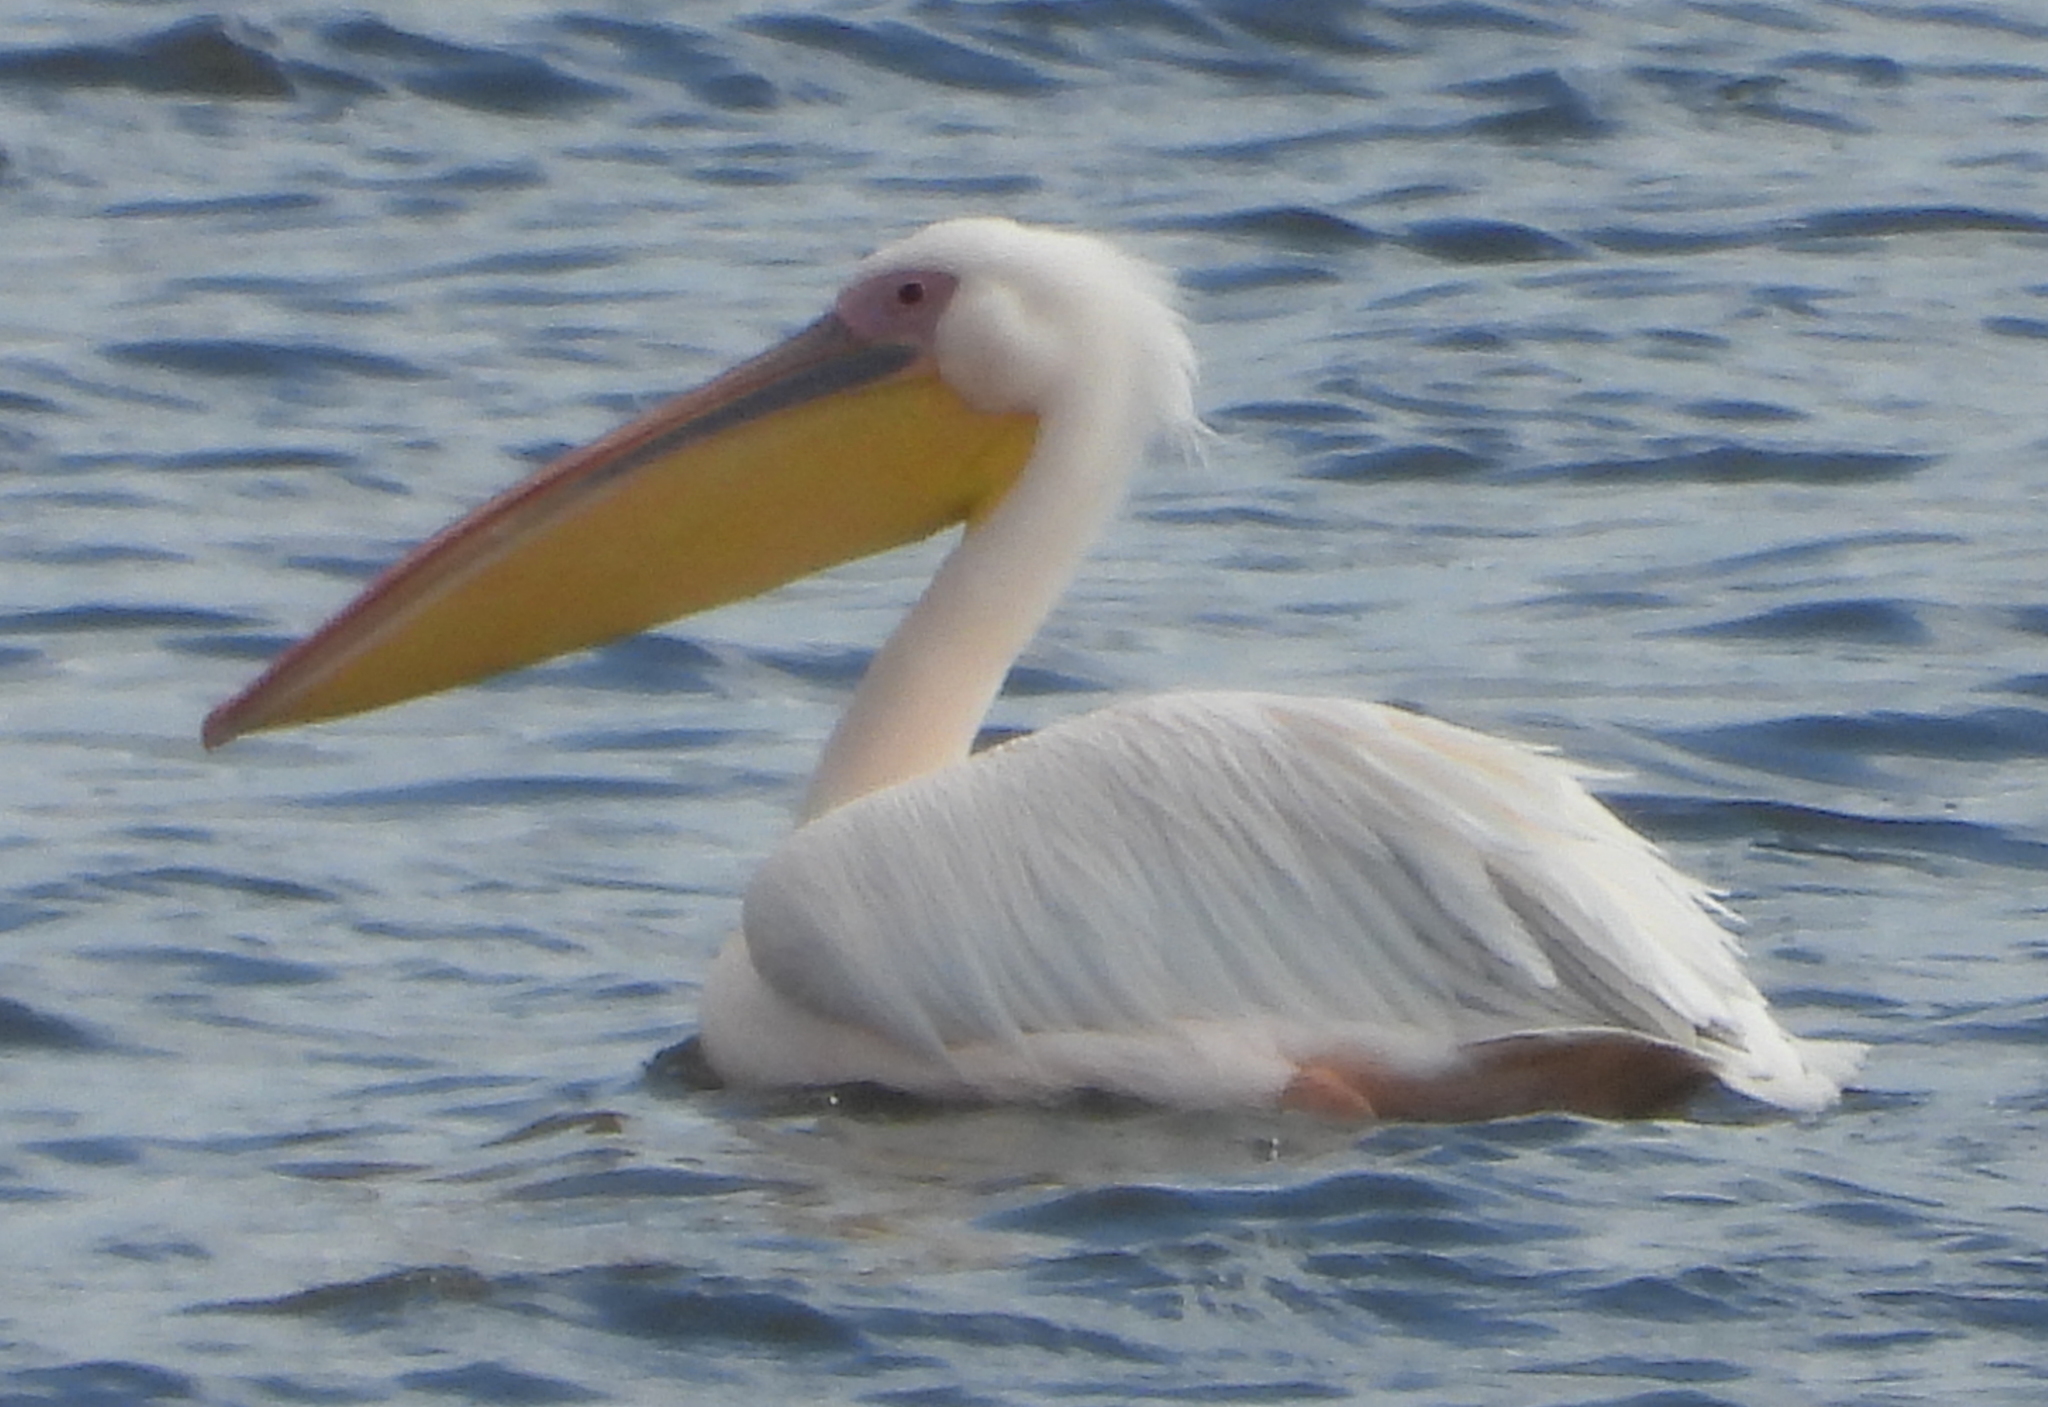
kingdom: Animalia
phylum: Chordata
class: Aves
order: Pelecaniformes
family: Pelecanidae
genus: Pelecanus
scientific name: Pelecanus onocrotalus
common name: Great white pelican
